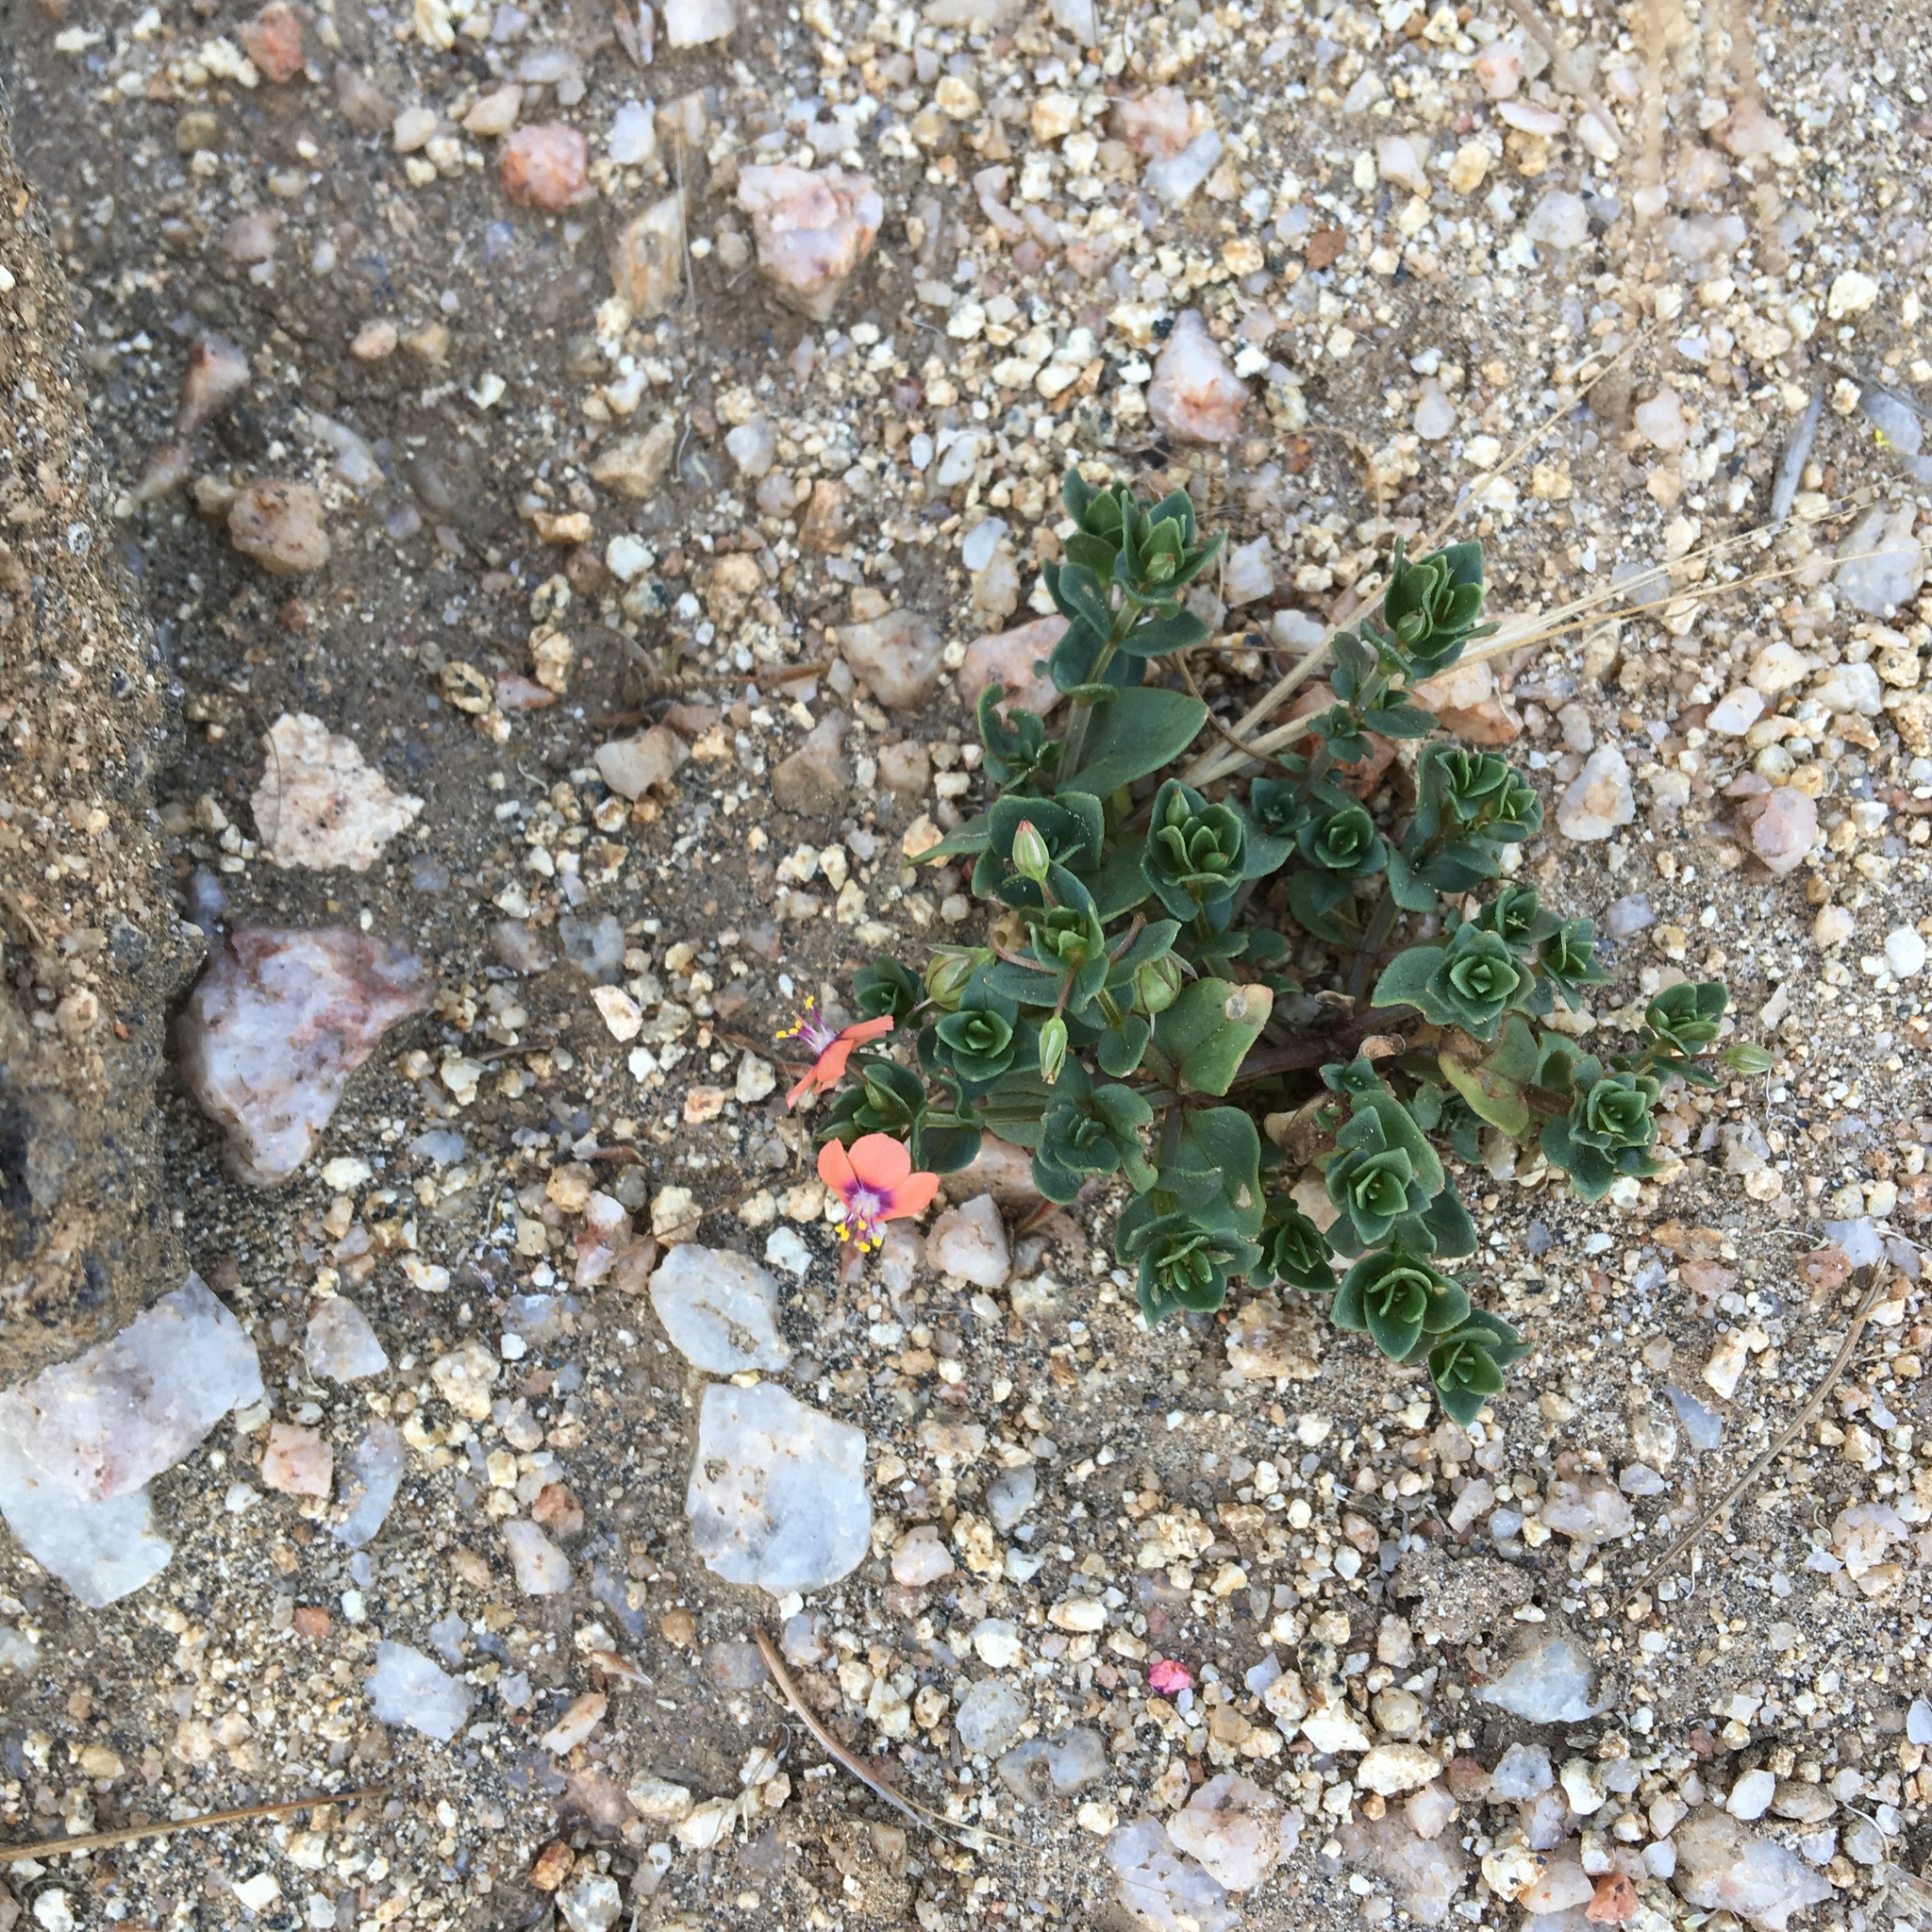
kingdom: Plantae
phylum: Tracheophyta
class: Magnoliopsida
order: Ericales
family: Primulaceae
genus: Lysimachia
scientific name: Lysimachia arvensis
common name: Scarlet pimpernel
